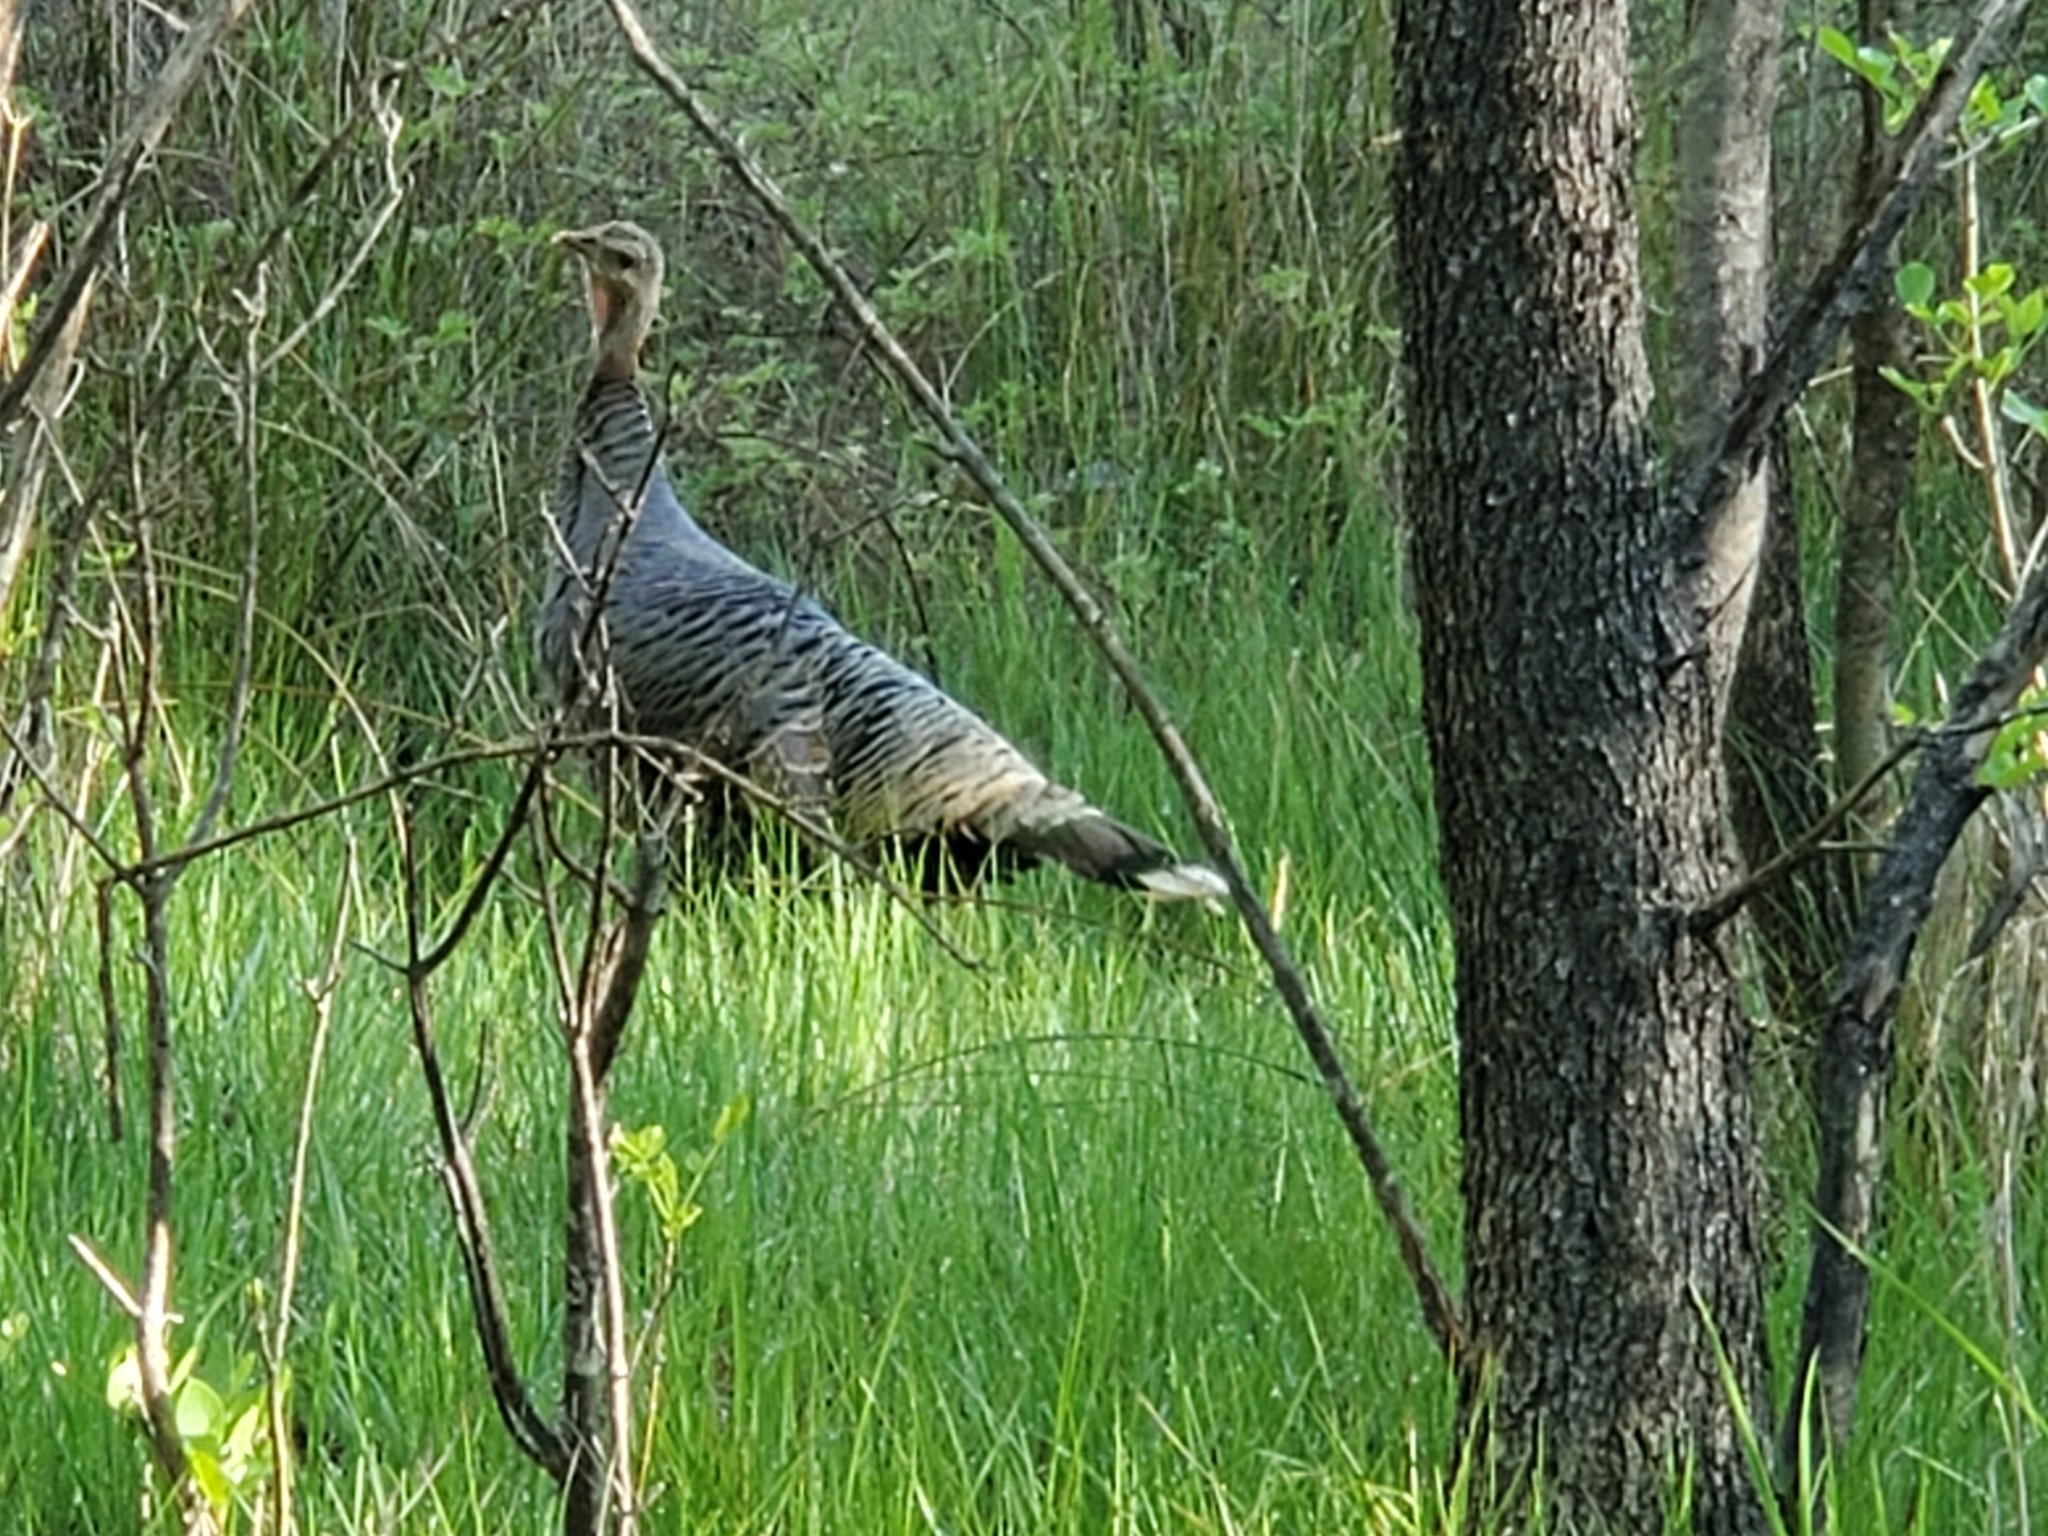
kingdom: Animalia
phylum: Chordata
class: Aves
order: Galliformes
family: Phasianidae
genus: Meleagris
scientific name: Meleagris gallopavo
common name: Wild turkey
